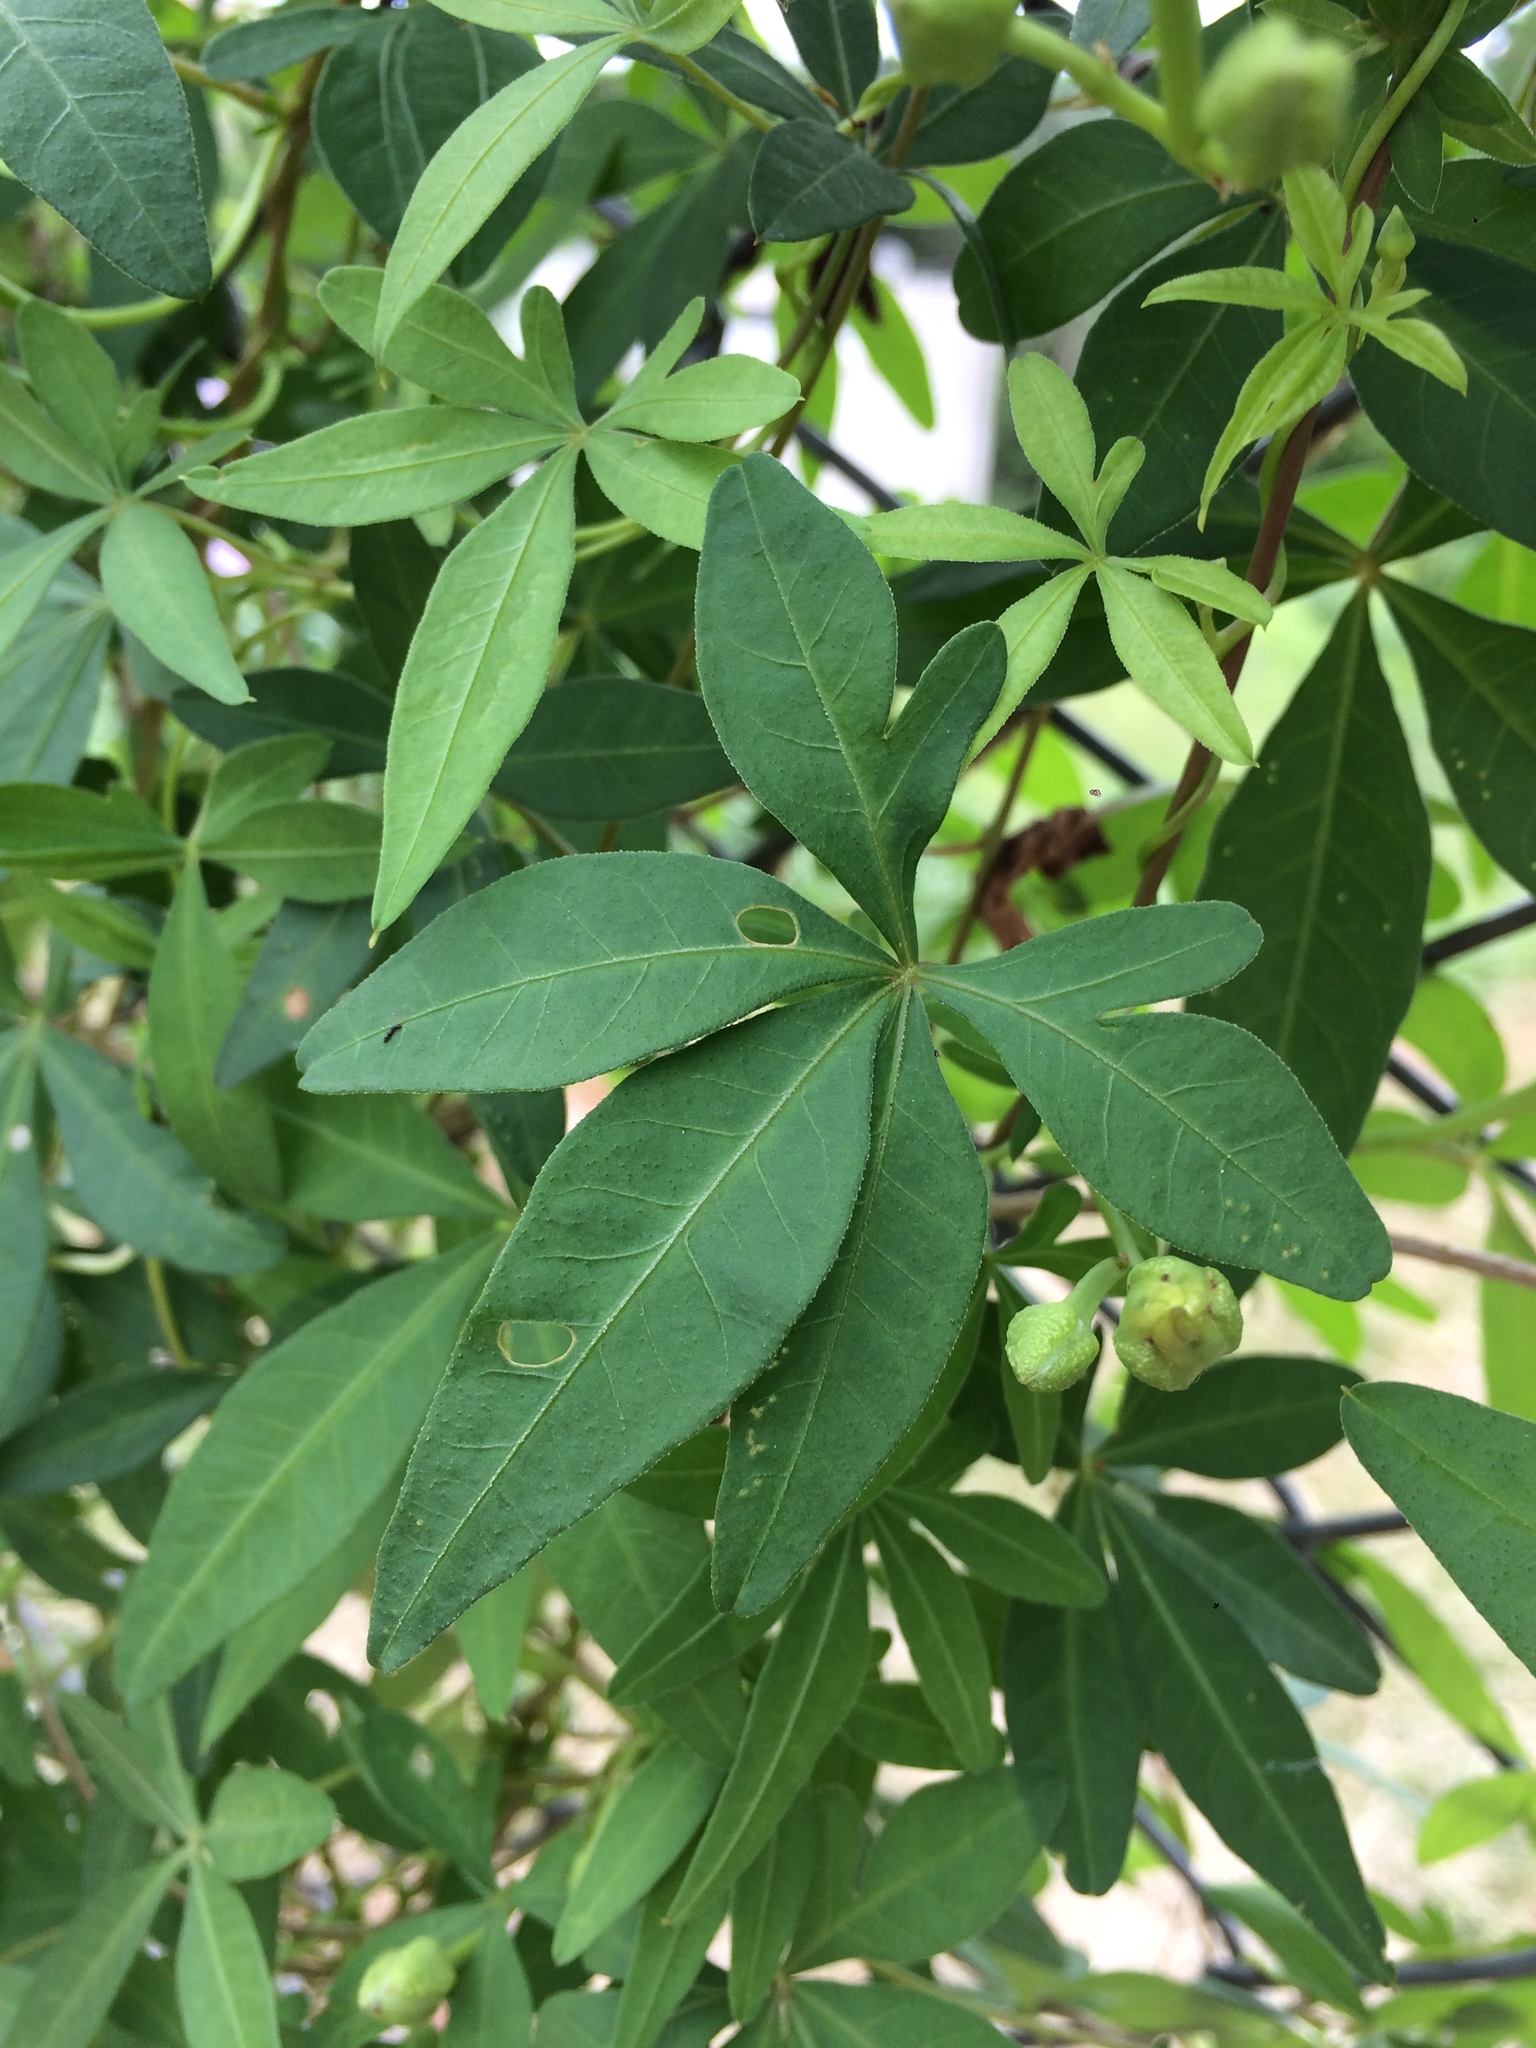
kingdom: Plantae
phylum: Tracheophyta
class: Magnoliopsida
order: Solanales
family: Convolvulaceae
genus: Ipomoea
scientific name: Ipomoea cairica
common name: Mile a minute vine
